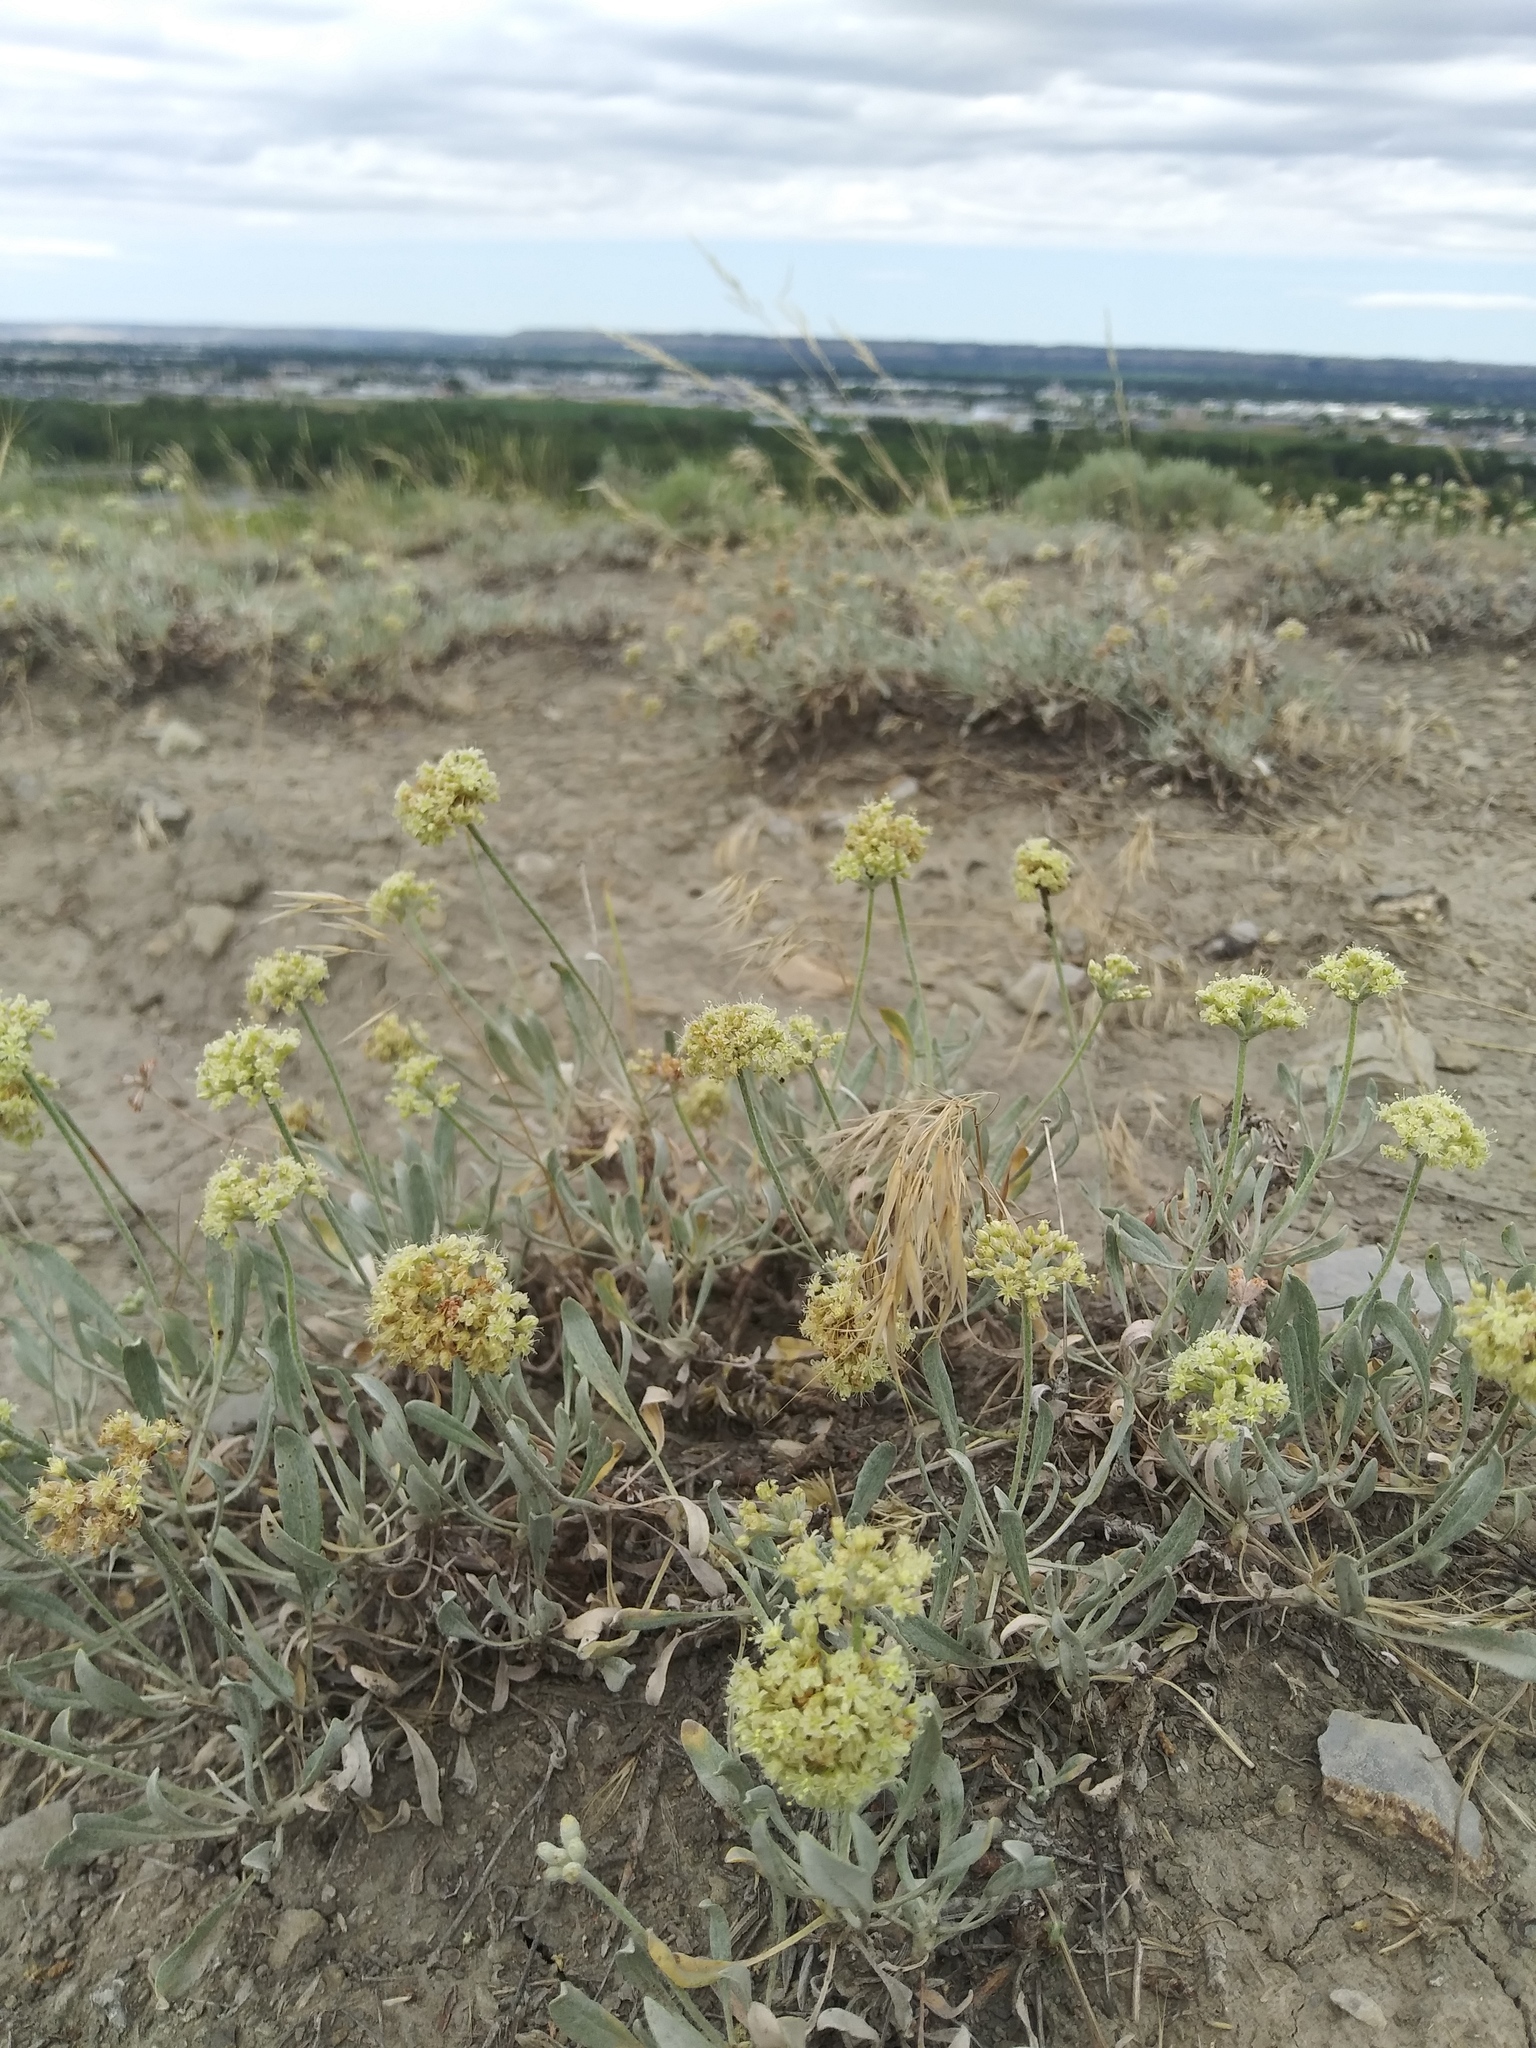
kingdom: Plantae
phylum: Tracheophyta
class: Magnoliopsida
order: Caryophyllales
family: Polygonaceae
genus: Eriogonum
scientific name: Eriogonum pauciflorum
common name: Few-flower wild buckwheat
